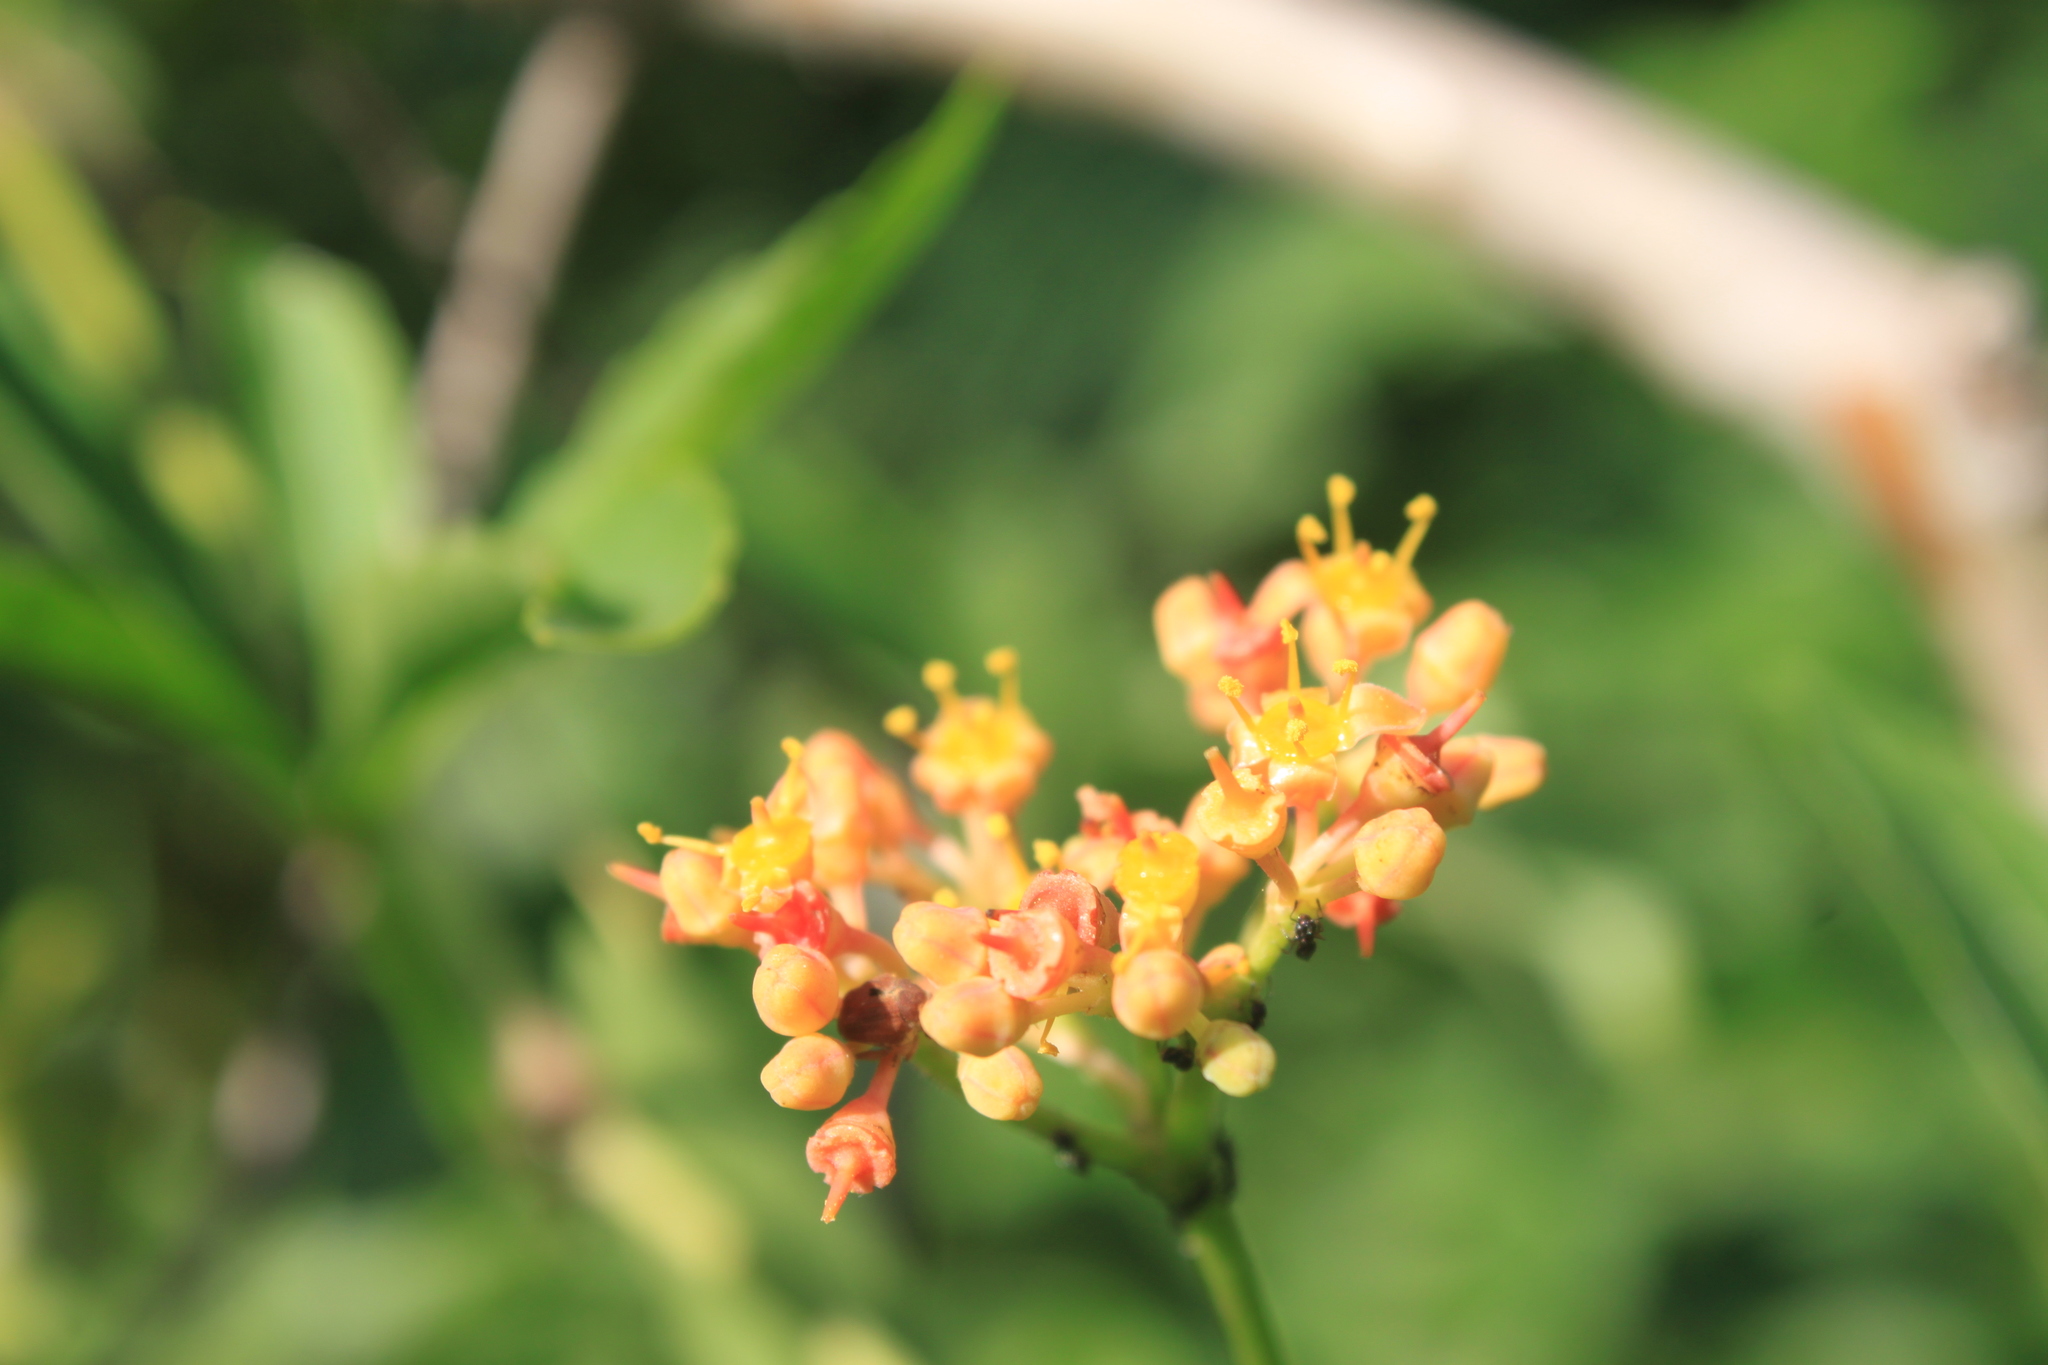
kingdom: Plantae
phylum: Tracheophyta
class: Magnoliopsida
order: Vitales
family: Vitaceae
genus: Cissus
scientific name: Cissus palmata
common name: Grape
